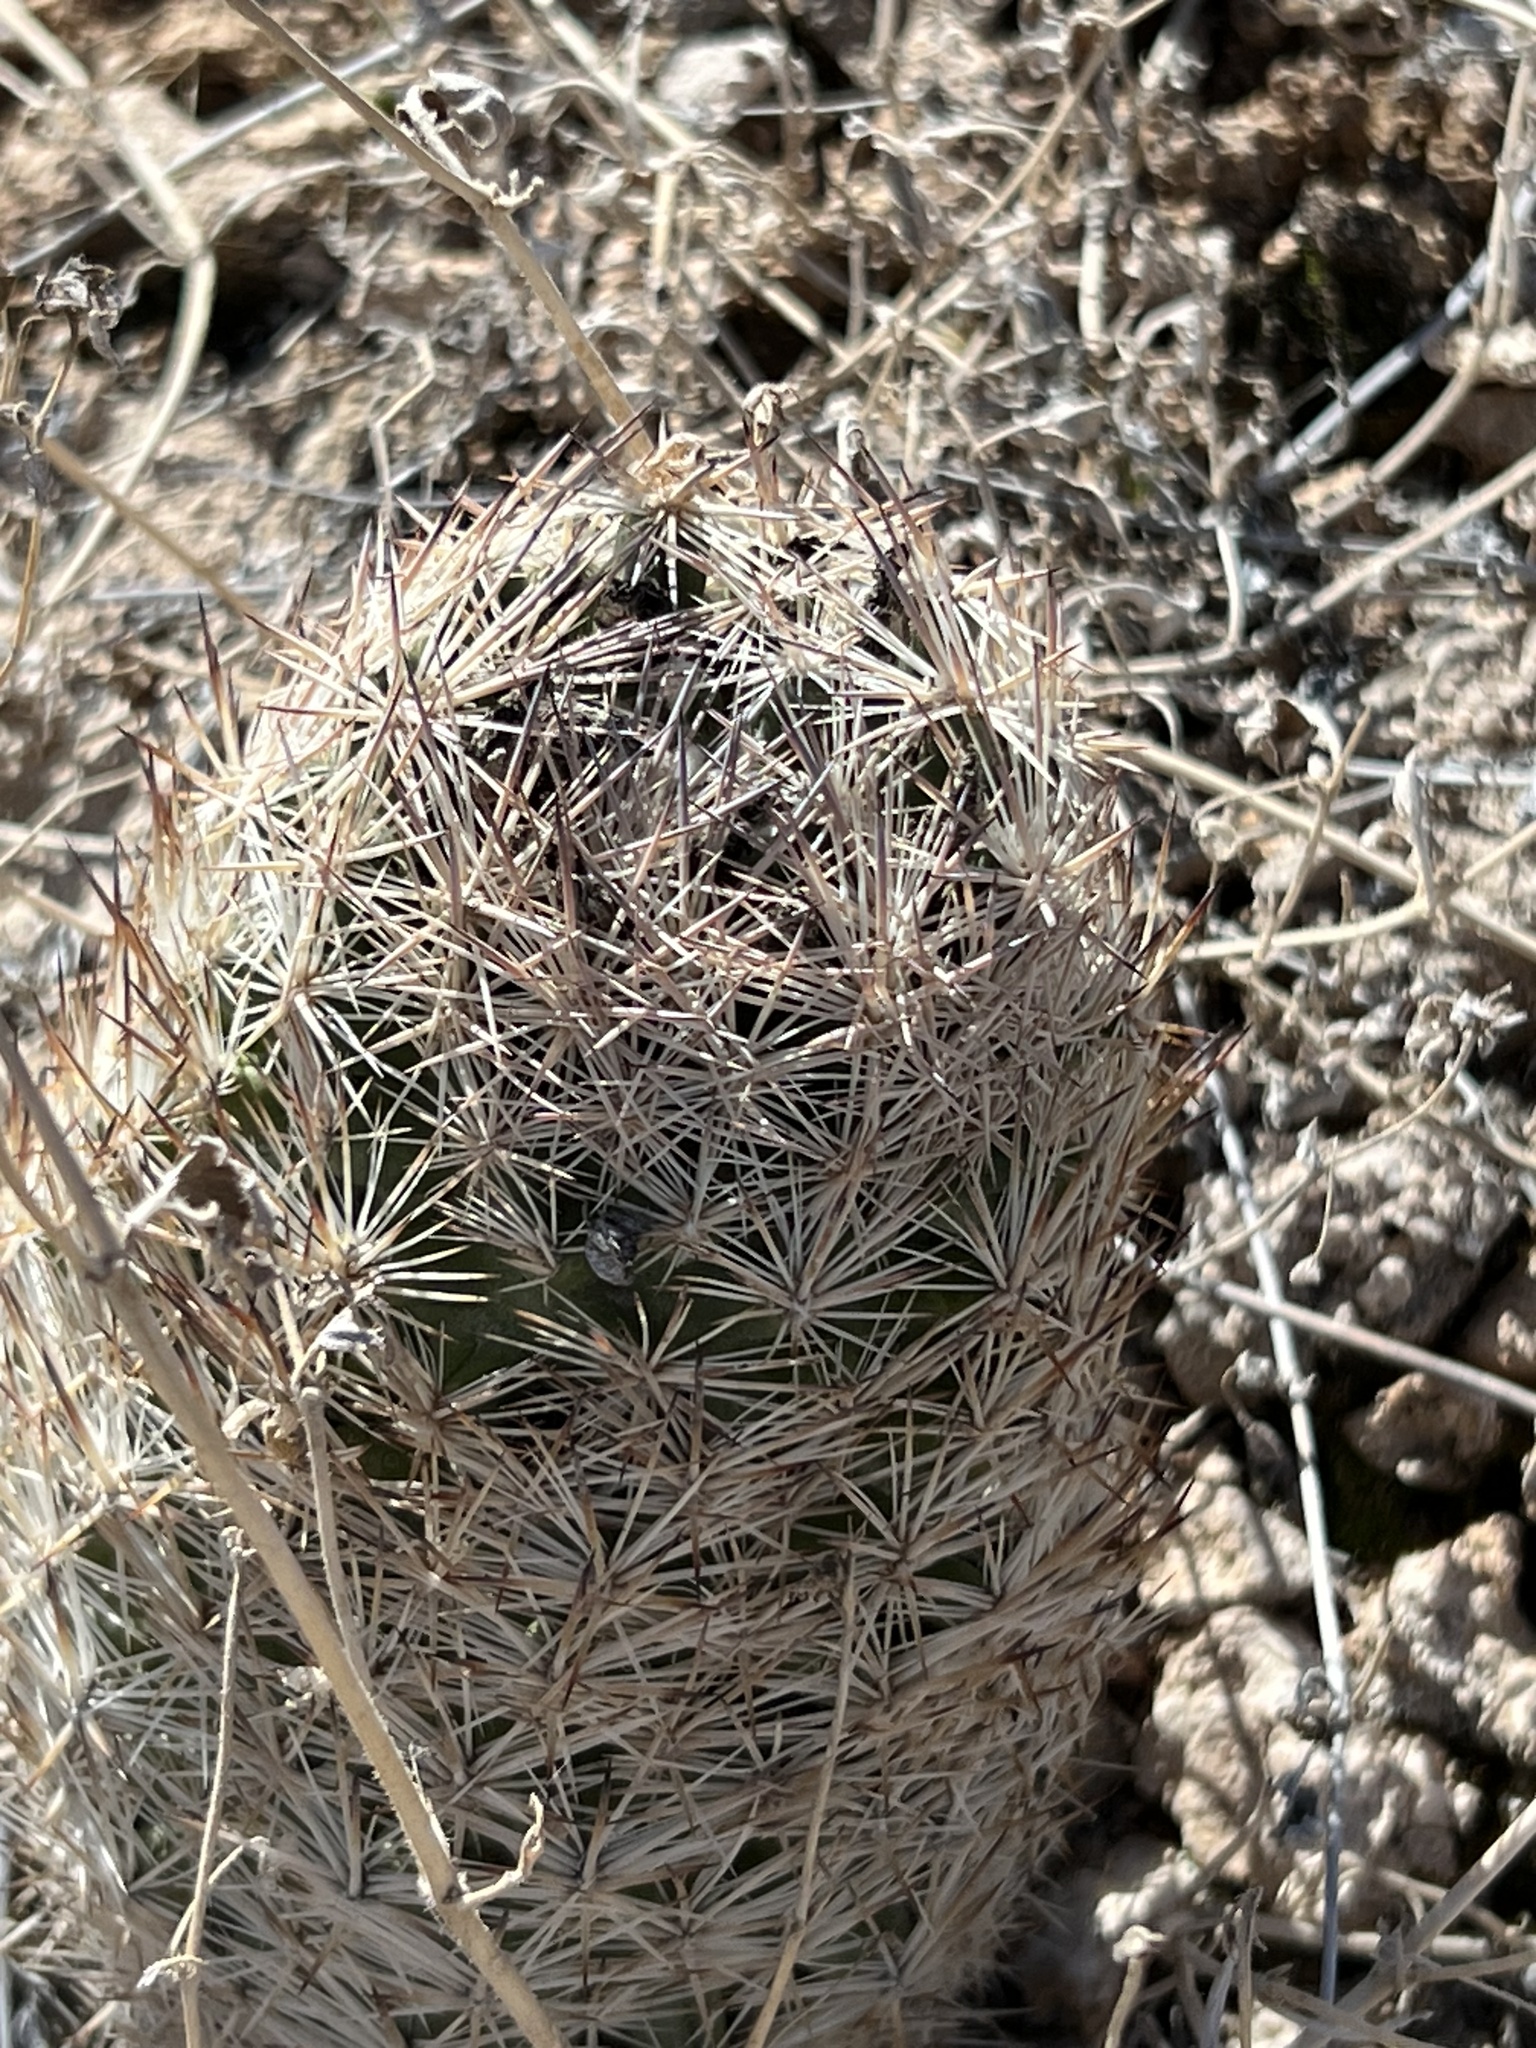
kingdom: Plantae
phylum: Tracheophyta
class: Magnoliopsida
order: Caryophyllales
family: Cactaceae
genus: Pelecyphora
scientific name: Pelecyphora dasyacantha
